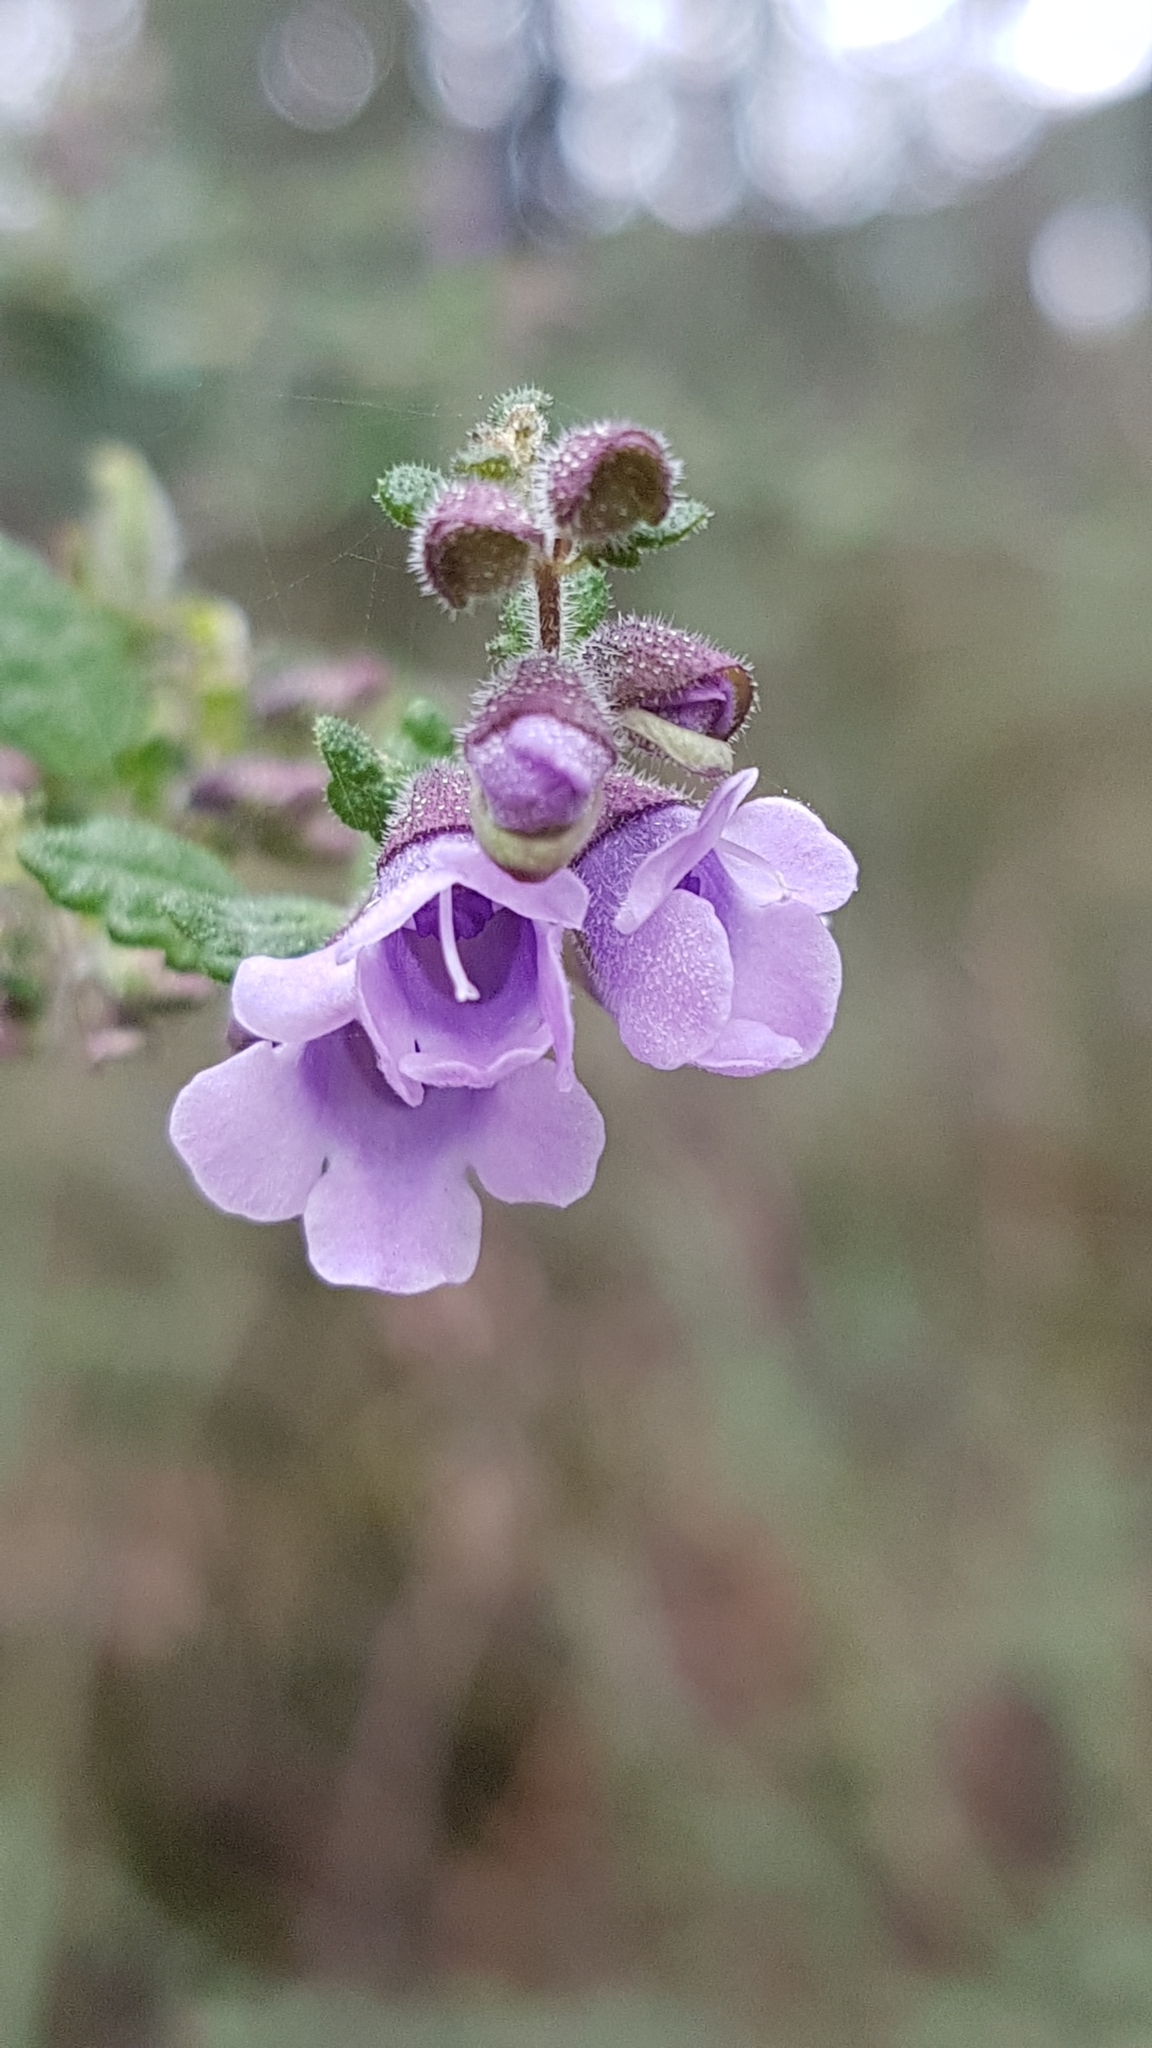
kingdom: Plantae
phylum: Tracheophyta
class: Magnoliopsida
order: Lamiales
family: Lamiaceae
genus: Prostanthera
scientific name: Prostanthera incana
